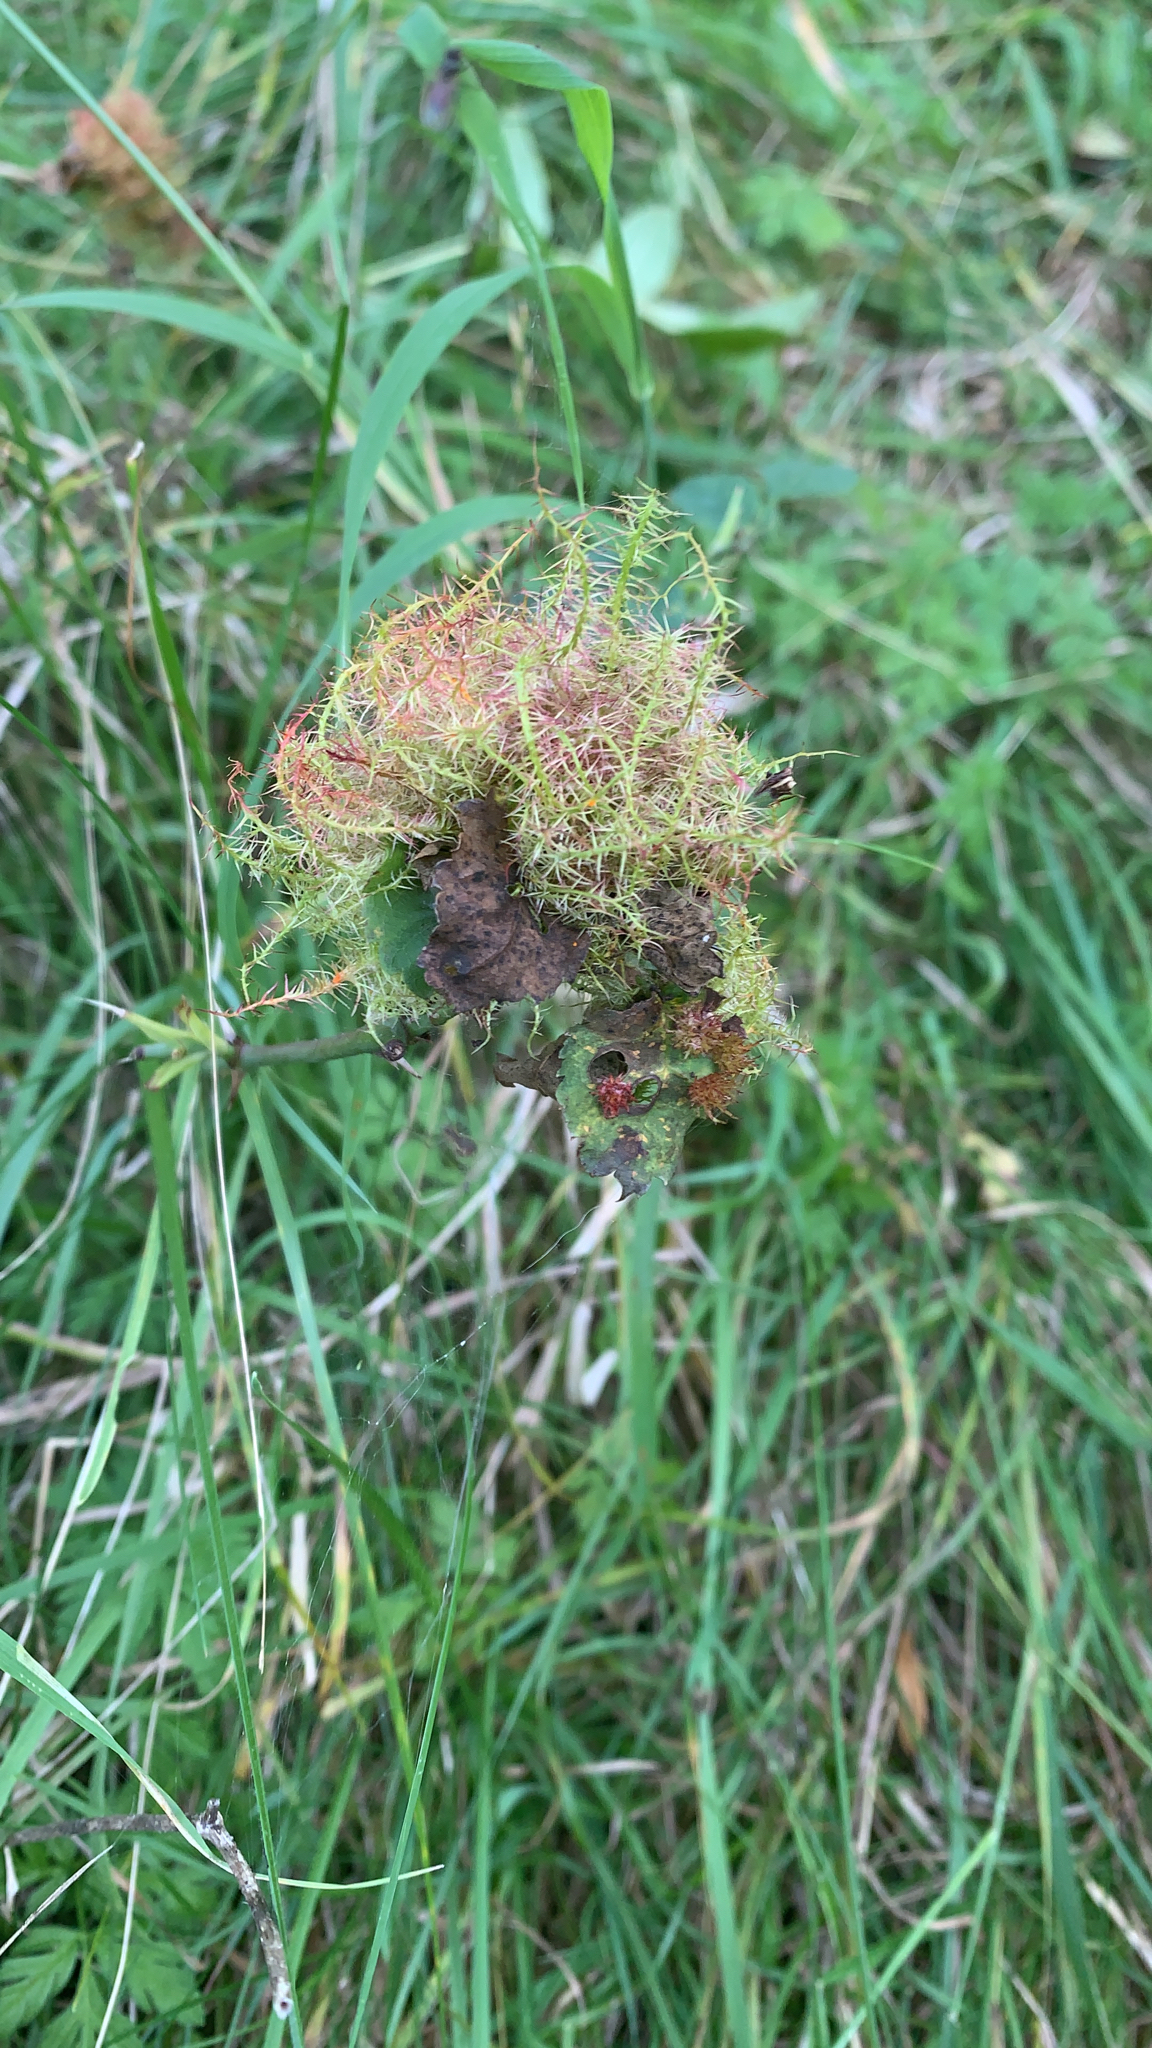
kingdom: Animalia
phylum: Arthropoda
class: Insecta
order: Hymenoptera
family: Cynipidae
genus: Diplolepis
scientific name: Diplolepis rosae
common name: Bedeguar gall
